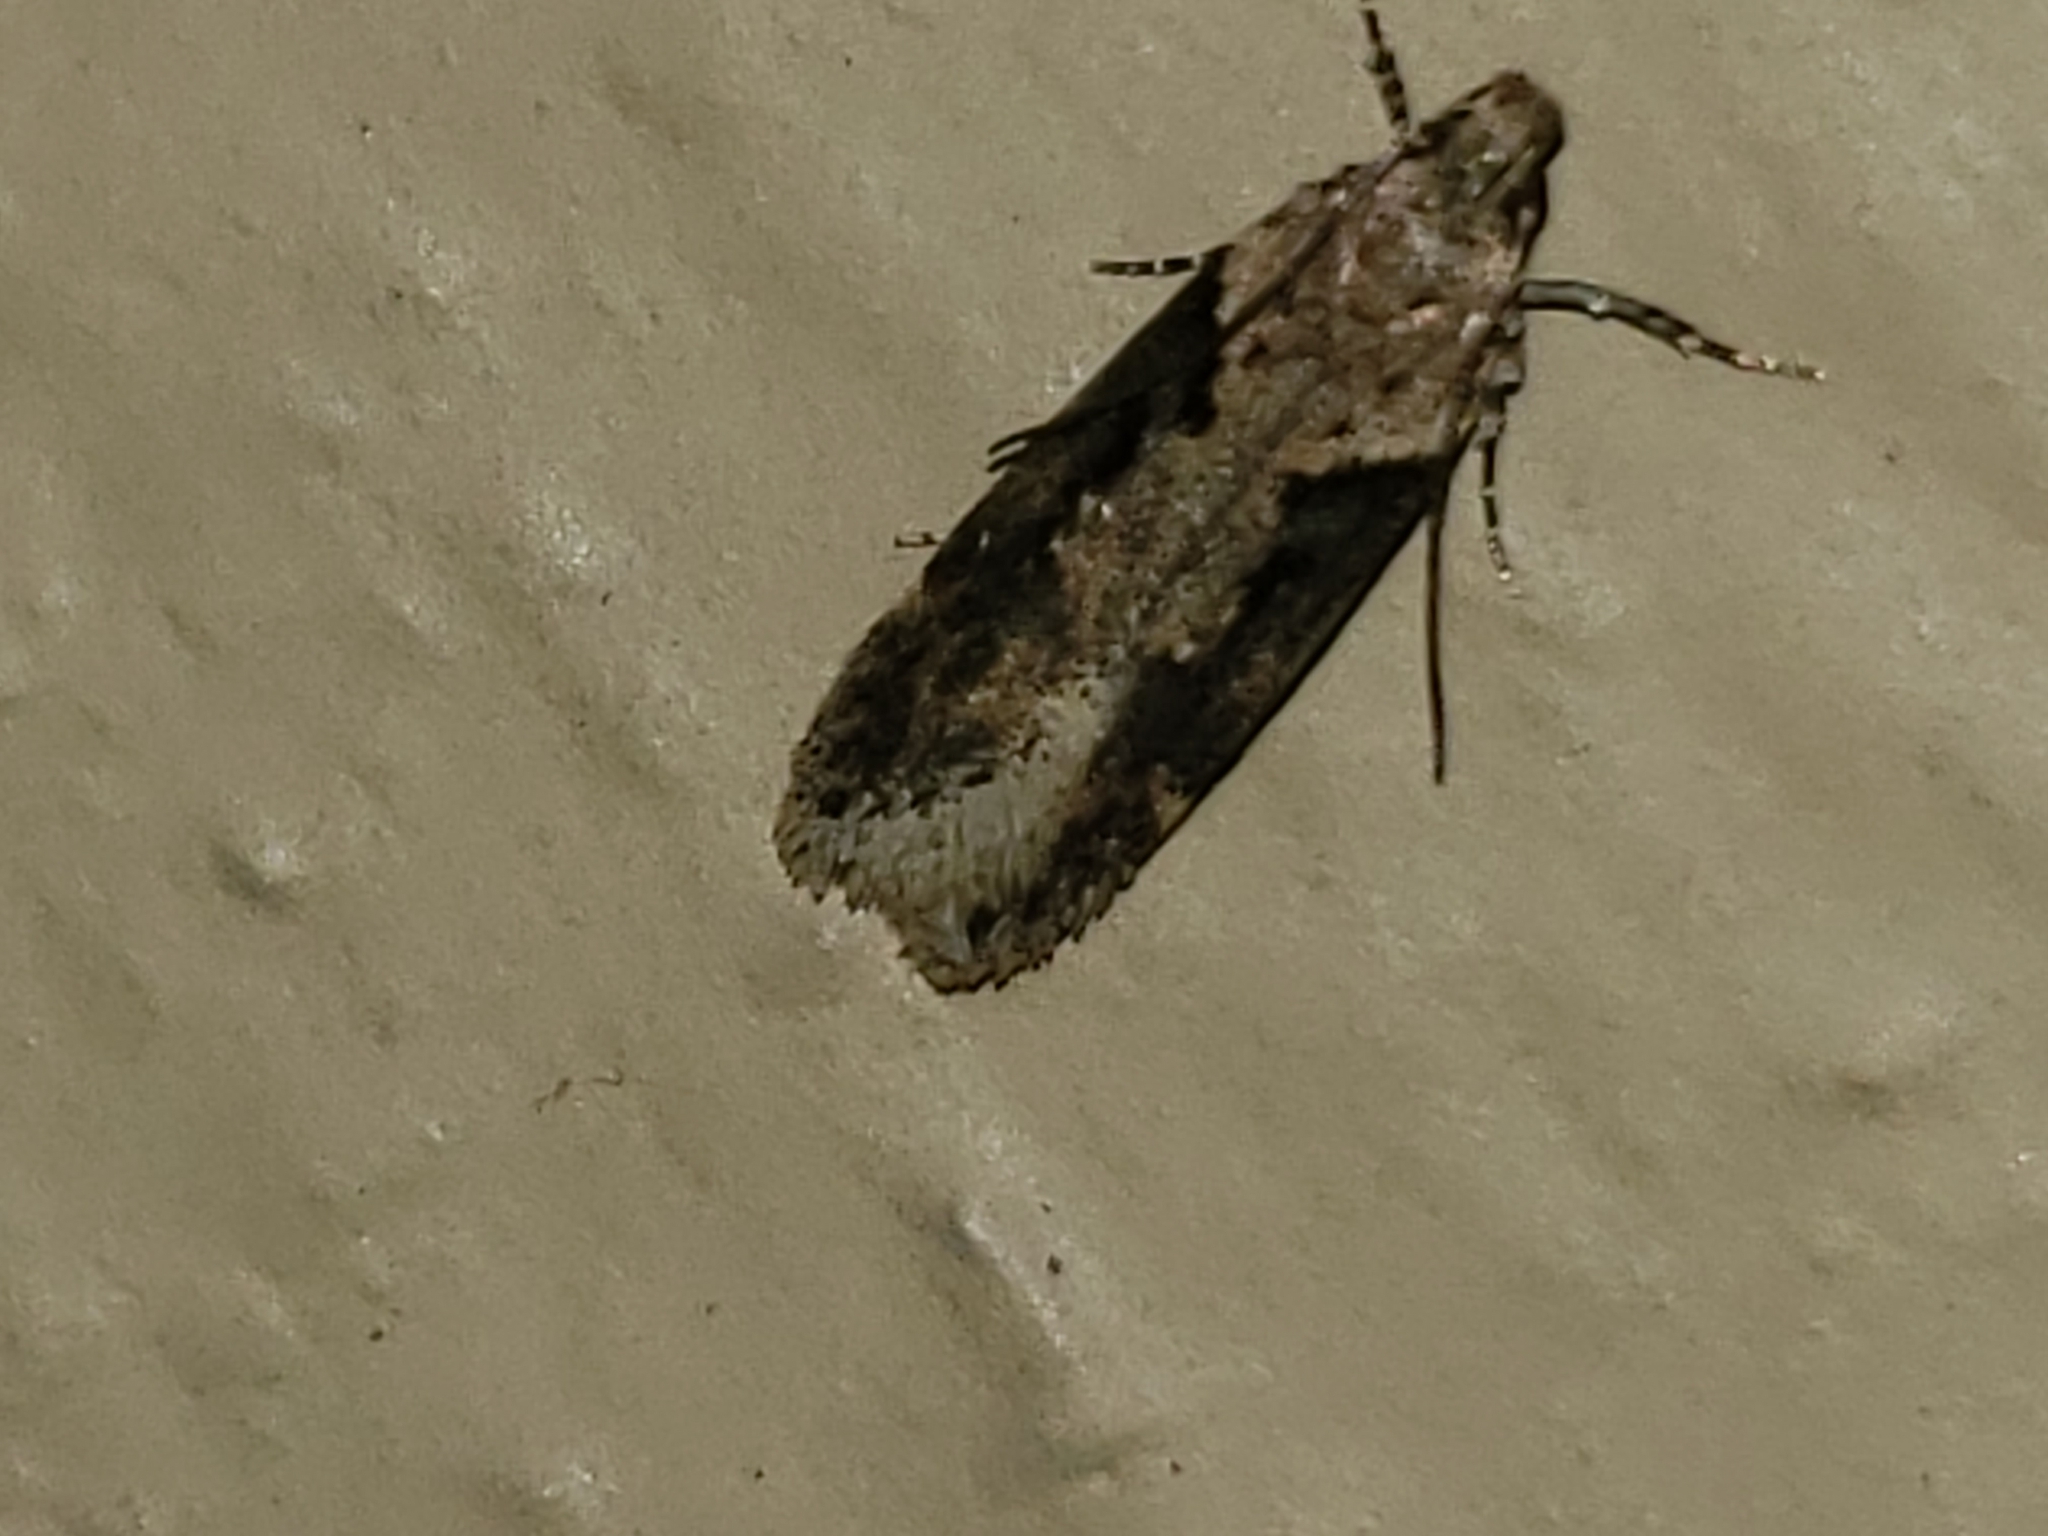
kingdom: Animalia
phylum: Arthropoda
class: Insecta
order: Lepidoptera
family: Gelechiidae
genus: Chionodes
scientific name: Chionodes mediofuscella
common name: Black-smudged chionodes moth
